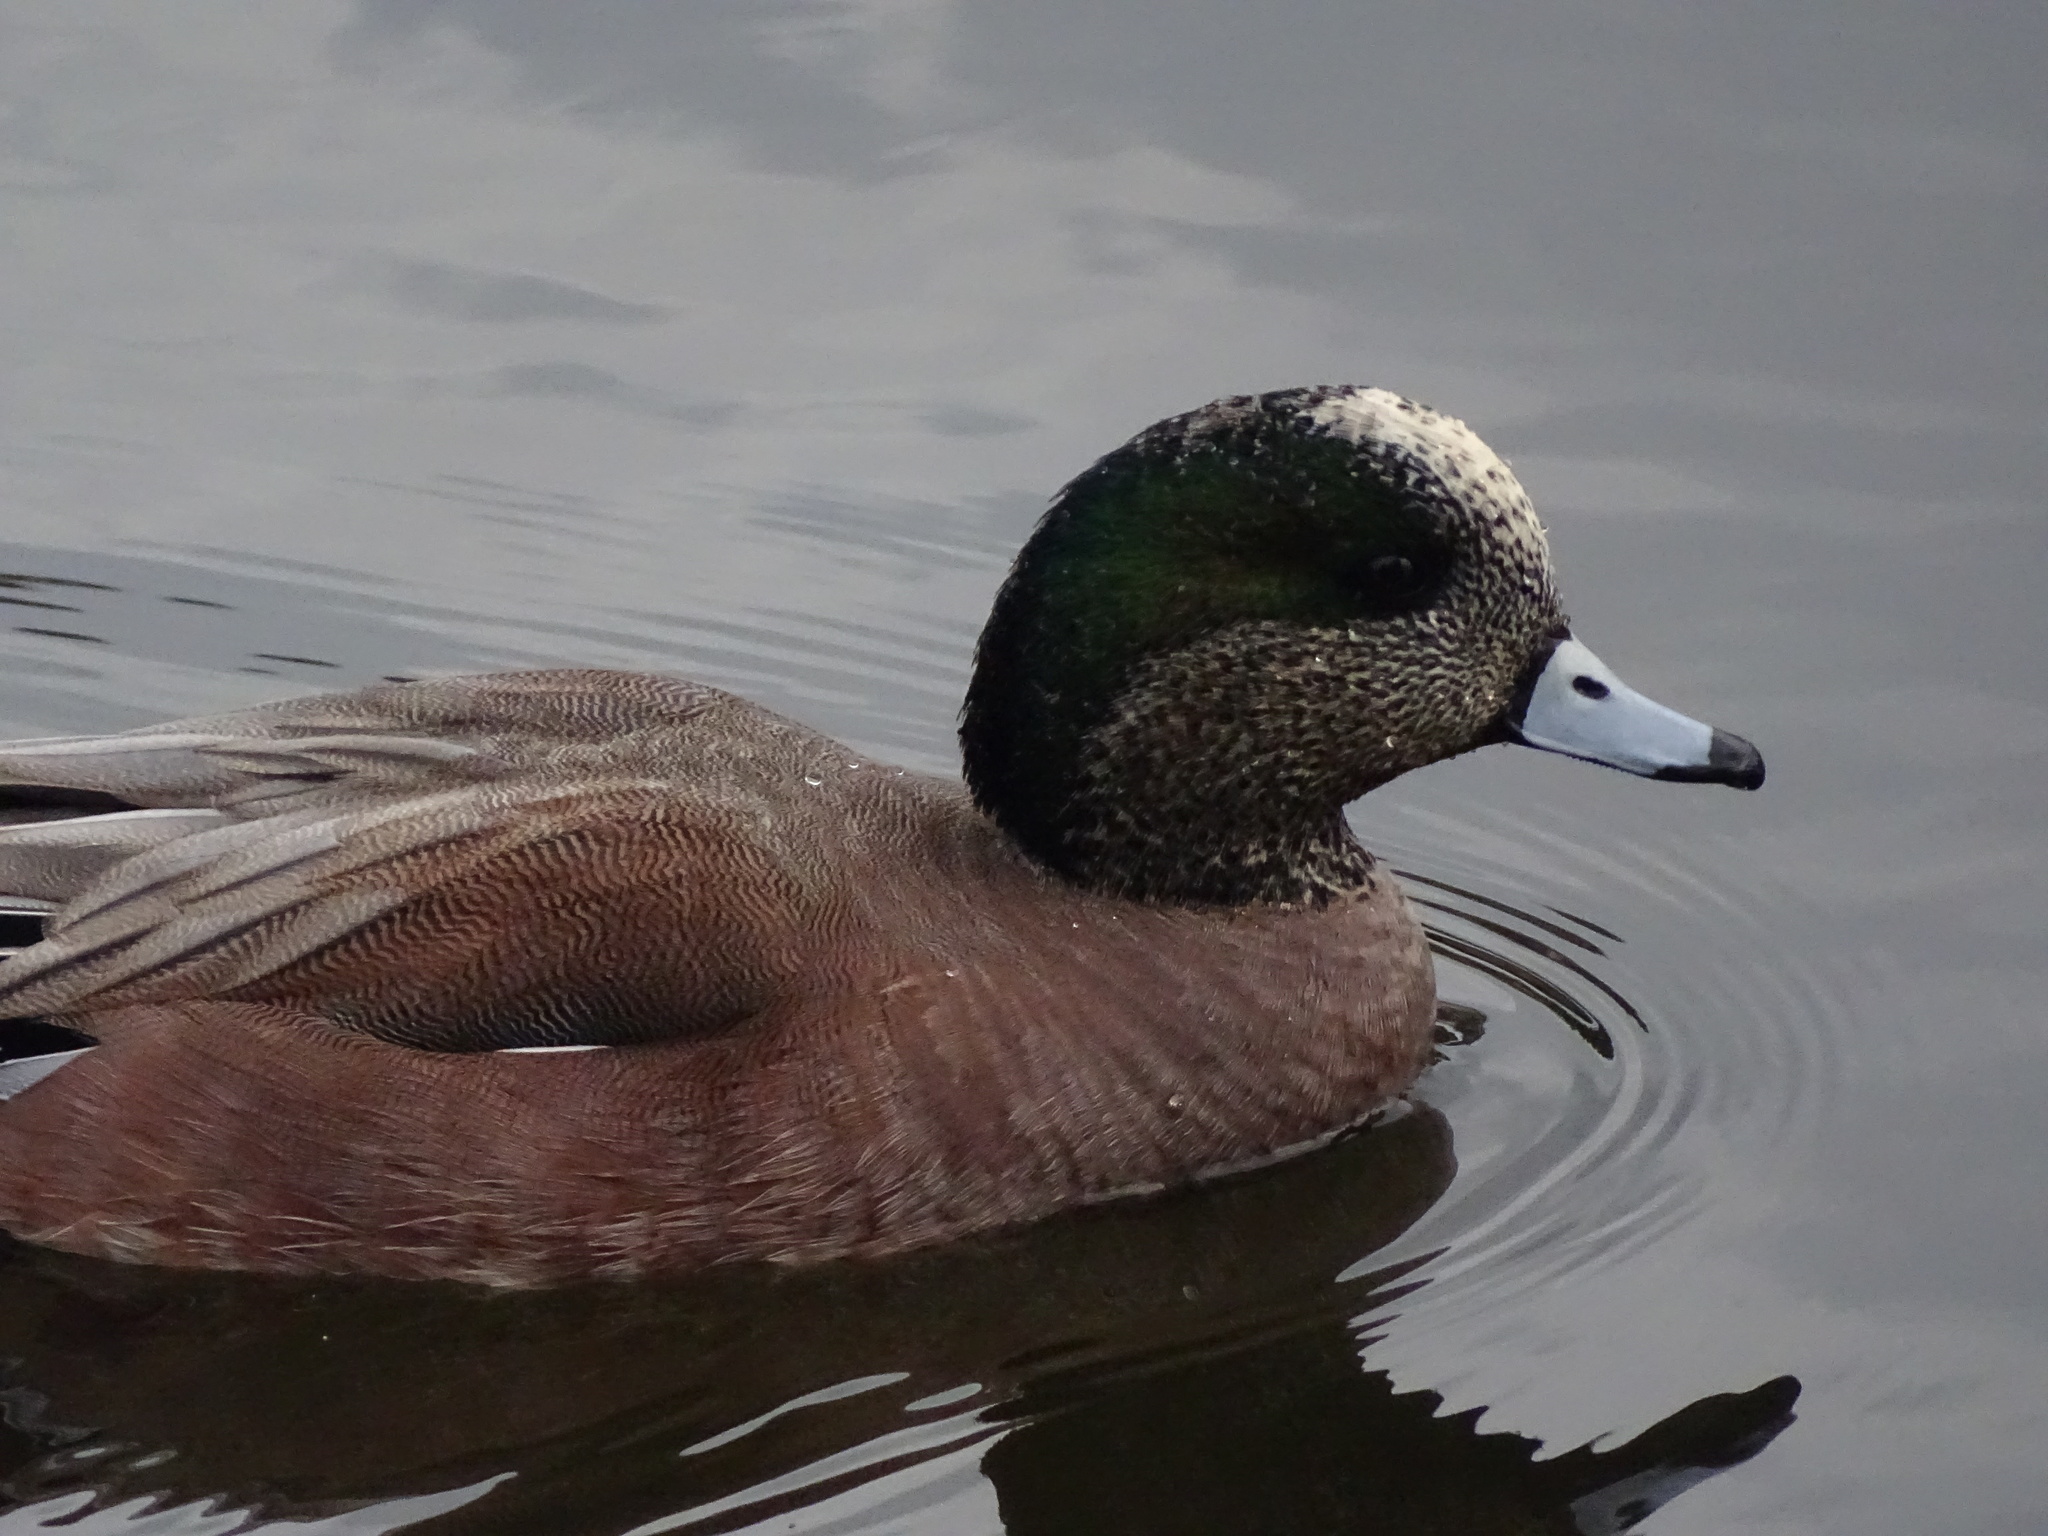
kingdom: Animalia
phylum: Chordata
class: Aves
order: Anseriformes
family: Anatidae
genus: Mareca
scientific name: Mareca americana
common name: American wigeon
